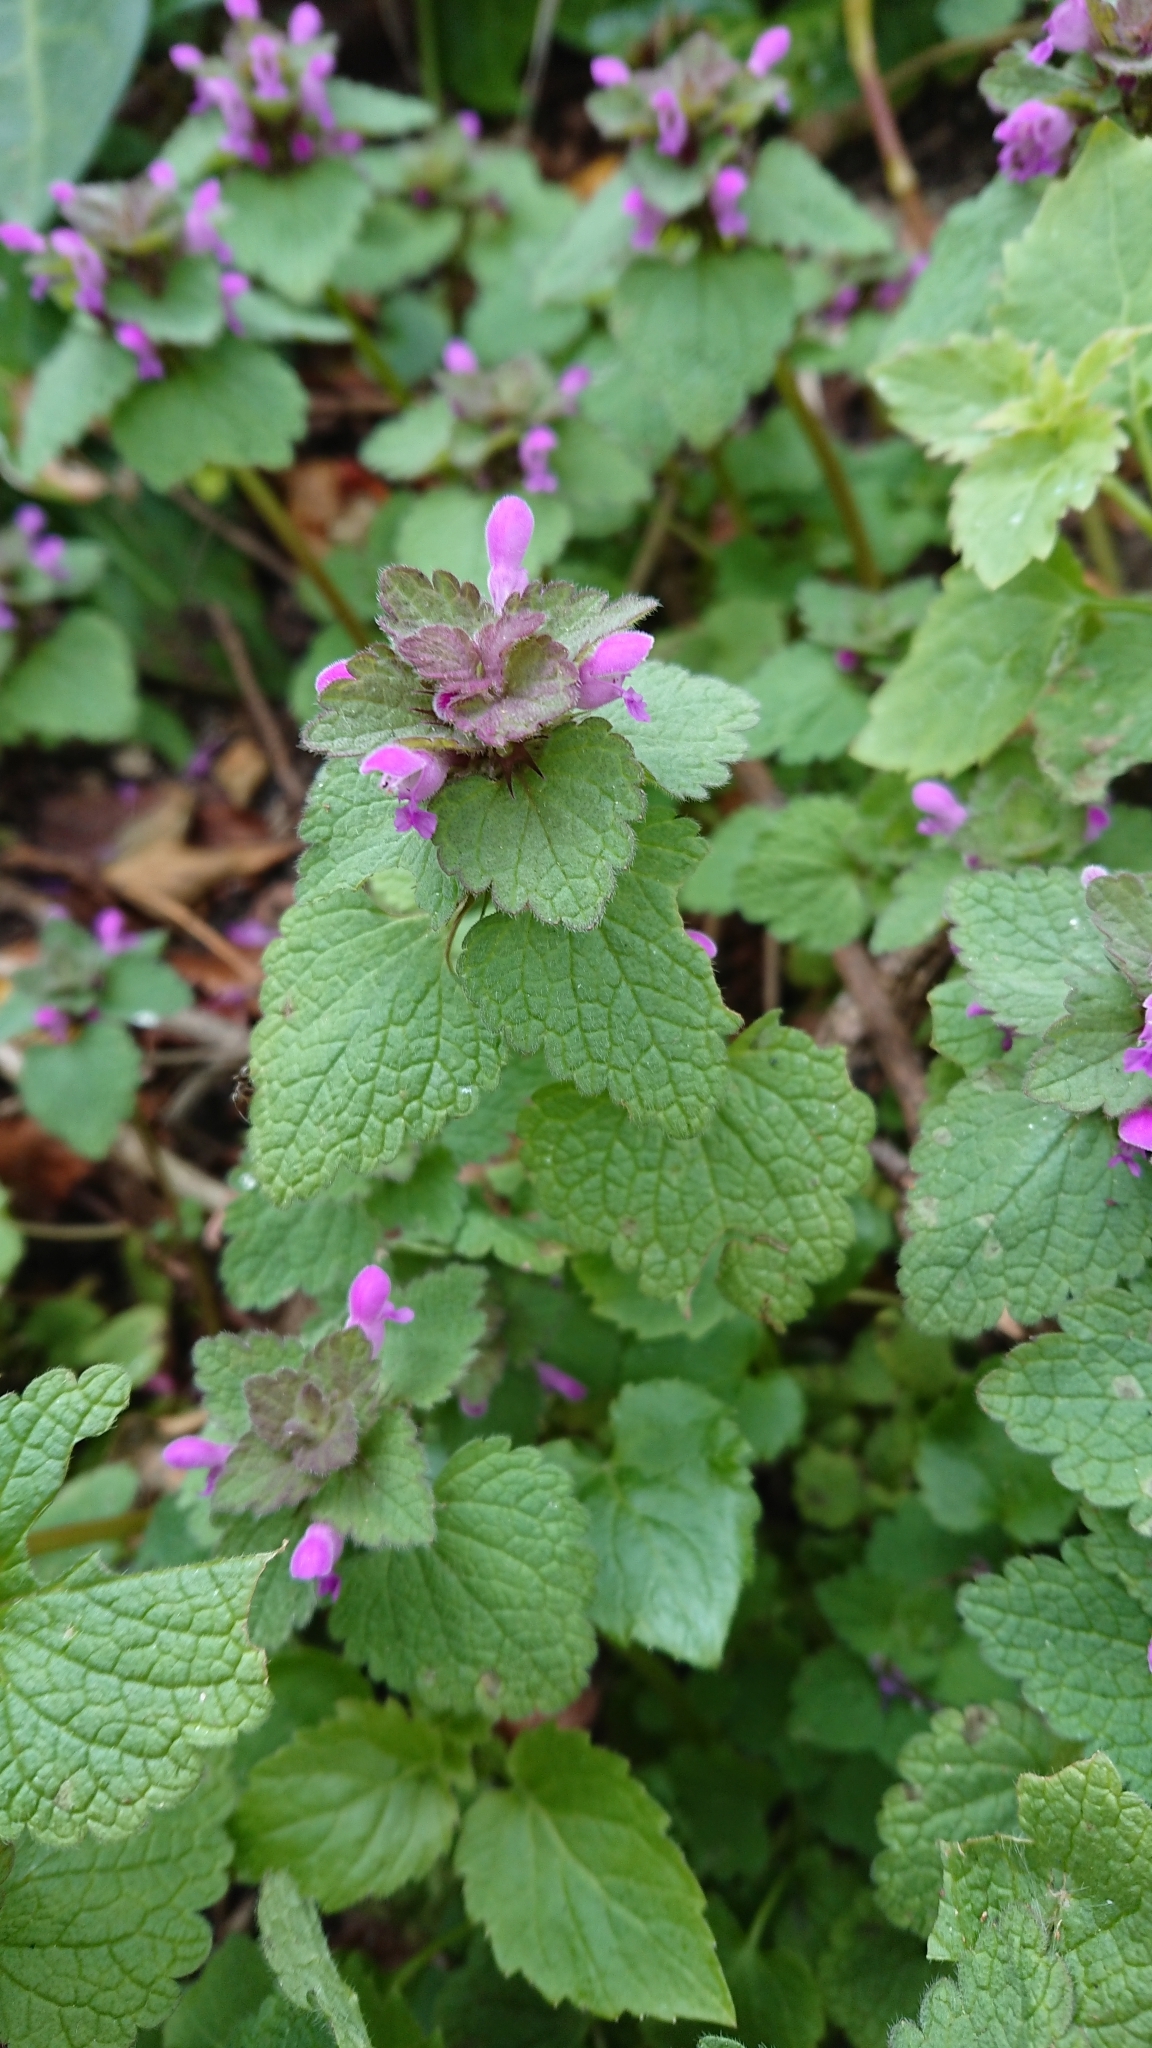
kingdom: Plantae
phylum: Tracheophyta
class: Magnoliopsida
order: Lamiales
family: Lamiaceae
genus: Lamium
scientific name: Lamium purpureum
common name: Red dead-nettle
